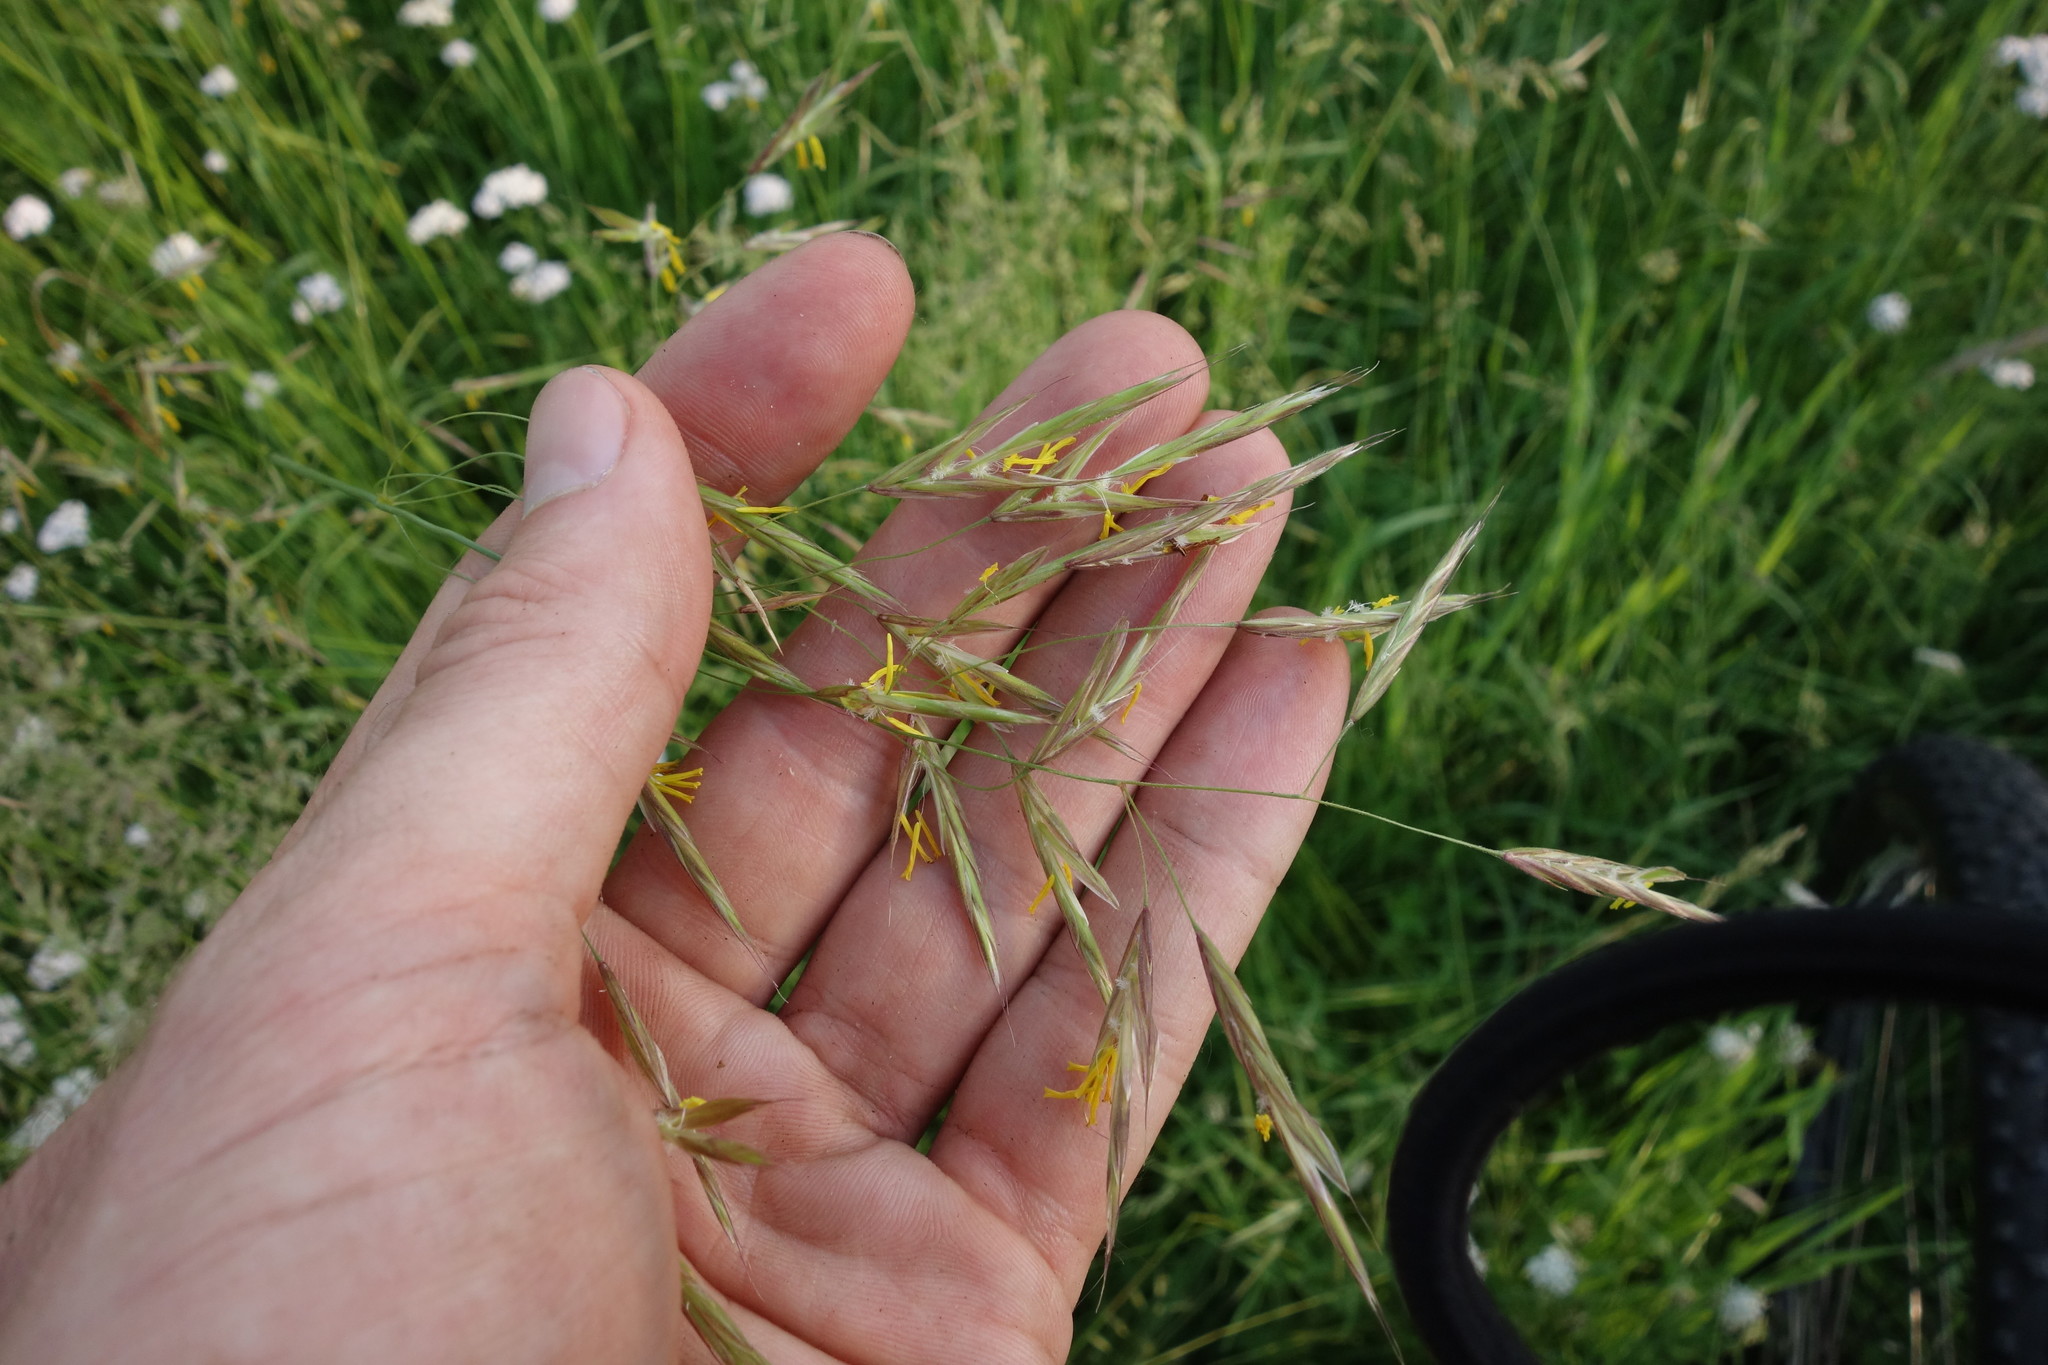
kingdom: Plantae
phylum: Tracheophyta
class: Liliopsida
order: Poales
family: Poaceae
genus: Bromus
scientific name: Bromus riparius
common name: Meadow brome
